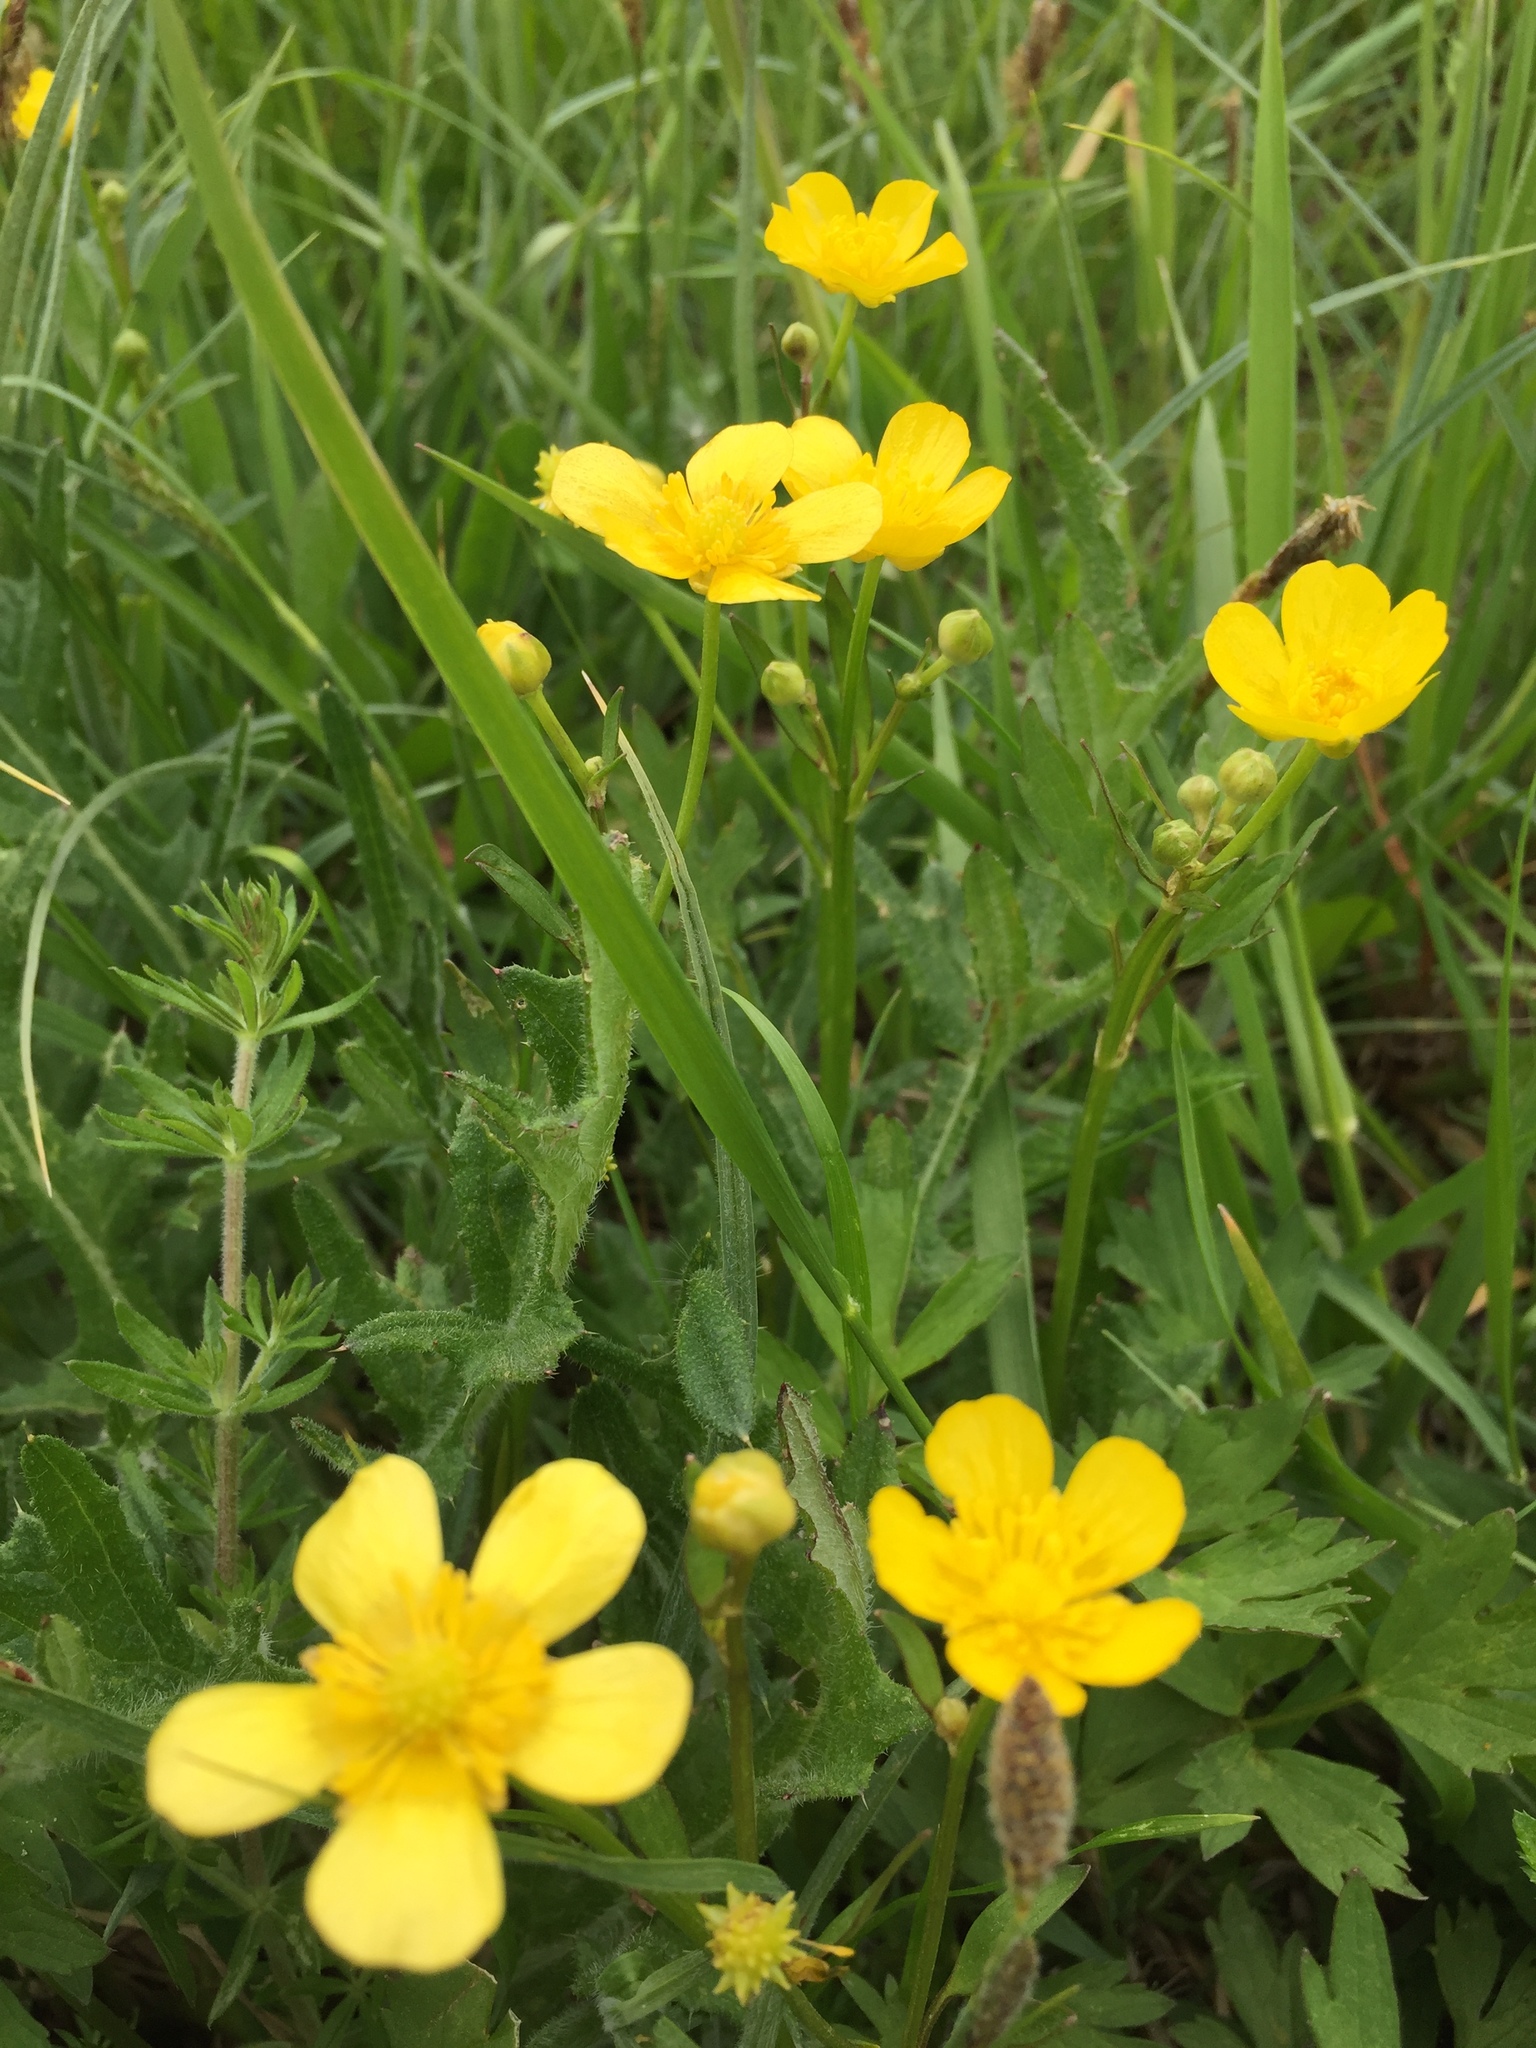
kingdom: Plantae
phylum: Tracheophyta
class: Magnoliopsida
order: Ranunculales
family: Ranunculaceae
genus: Ranunculus
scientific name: Ranunculus repens
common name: Creeping buttercup
